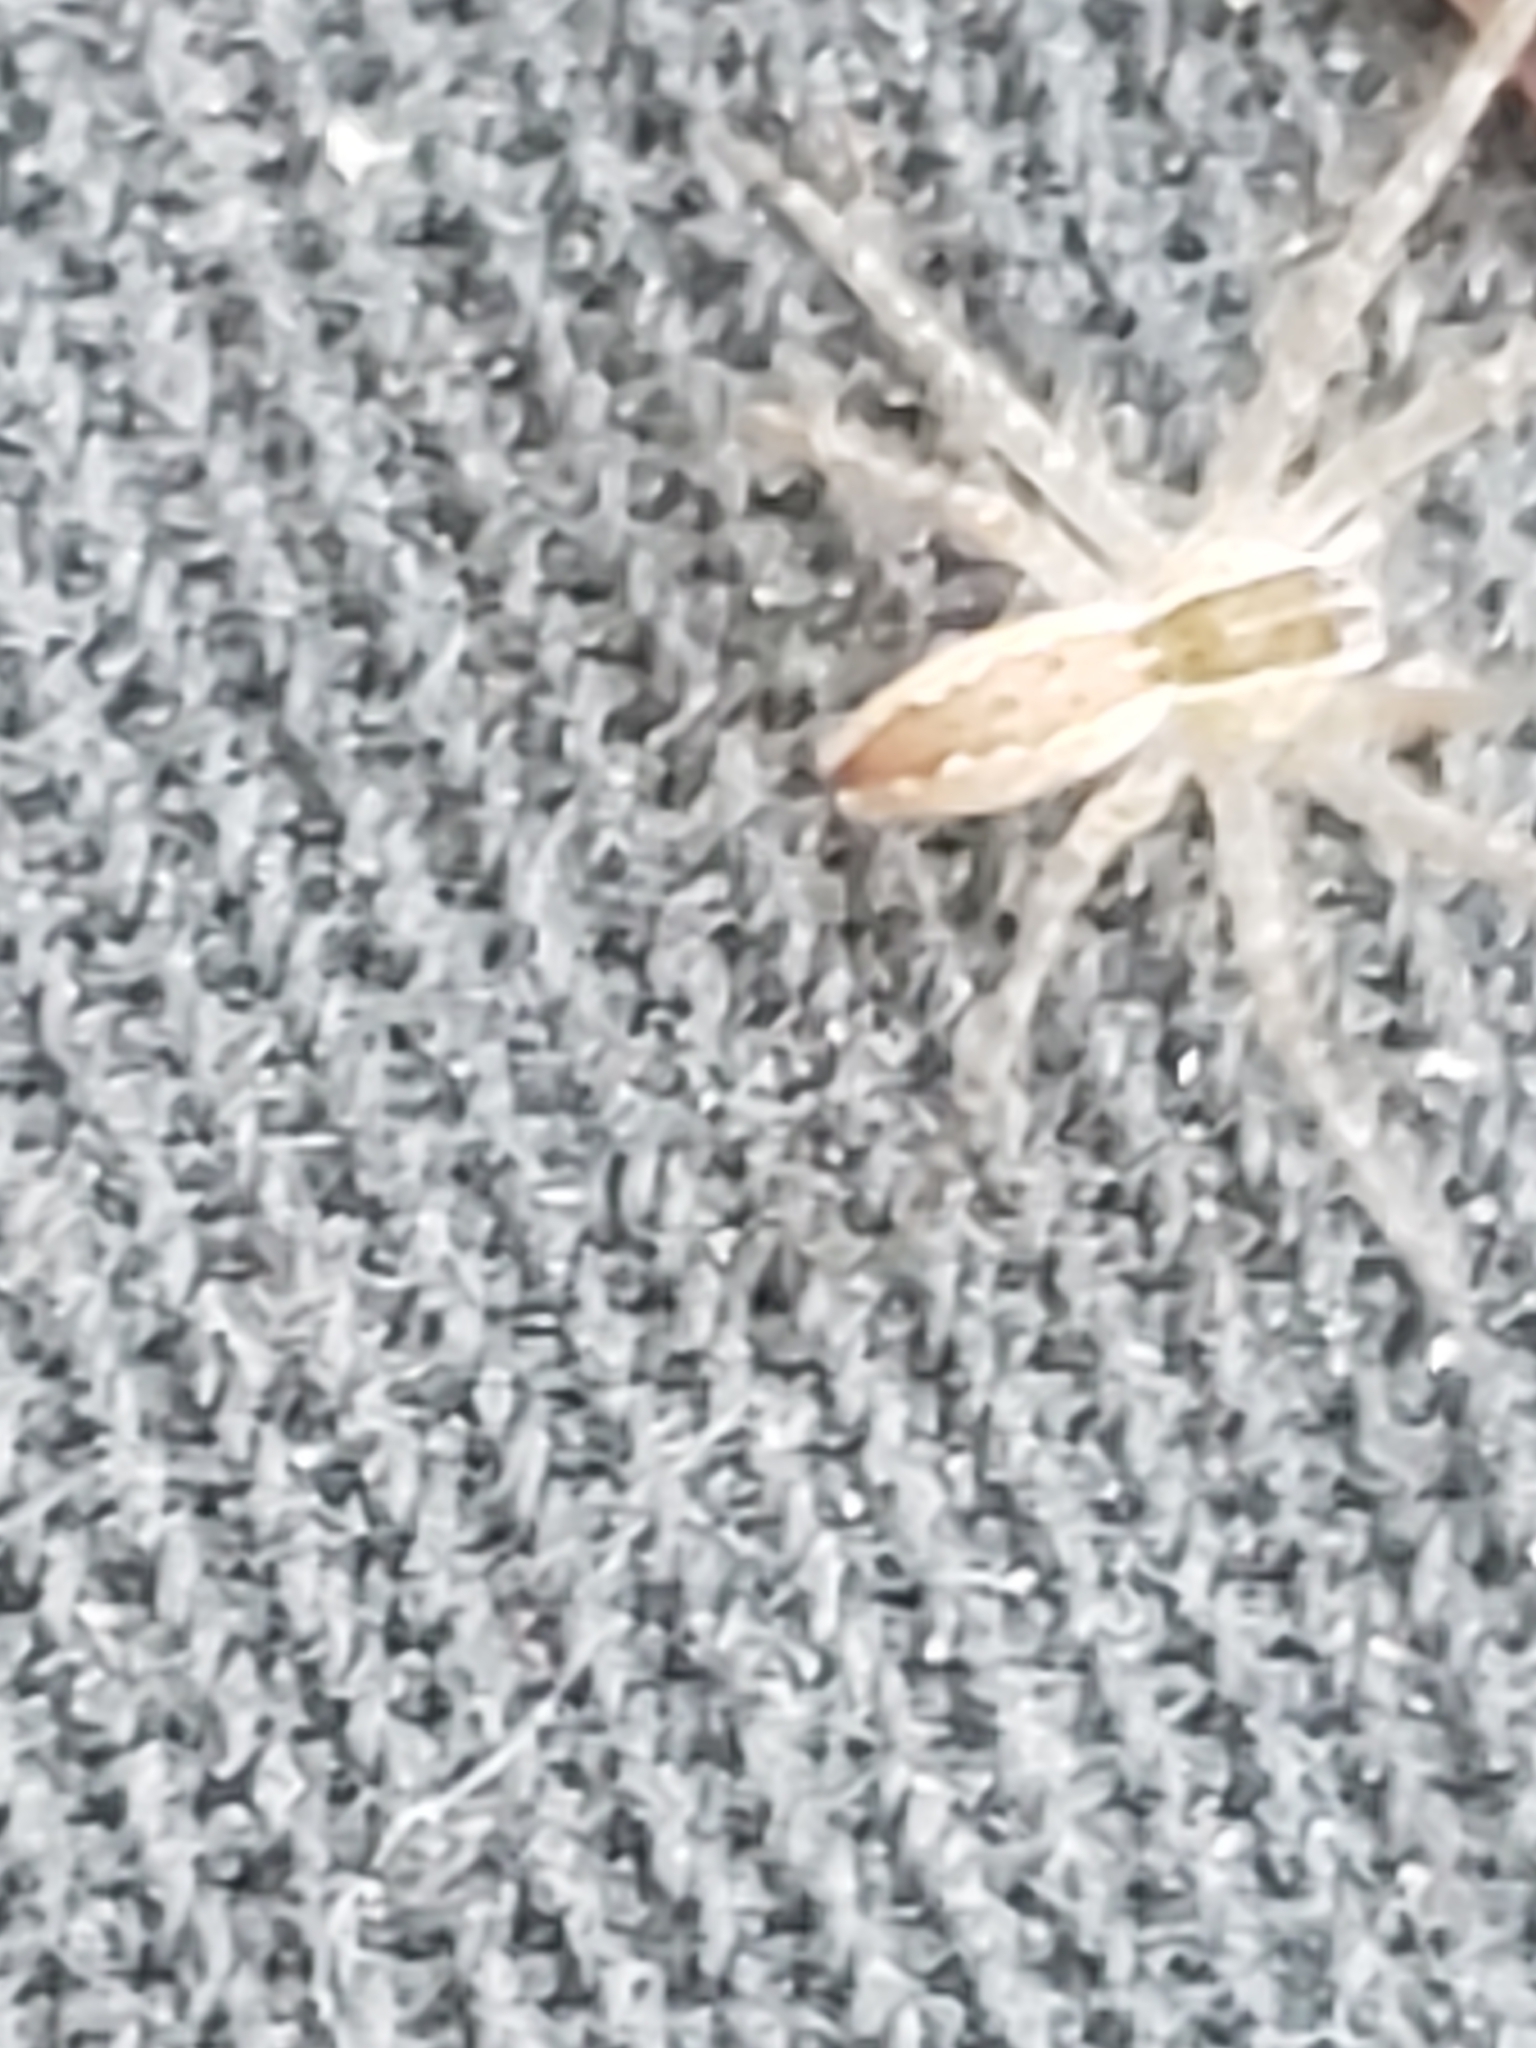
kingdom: Animalia
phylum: Arthropoda
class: Arachnida
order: Araneae
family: Pisauridae
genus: Pisaurina
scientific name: Pisaurina mira
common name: American nursery web spider
